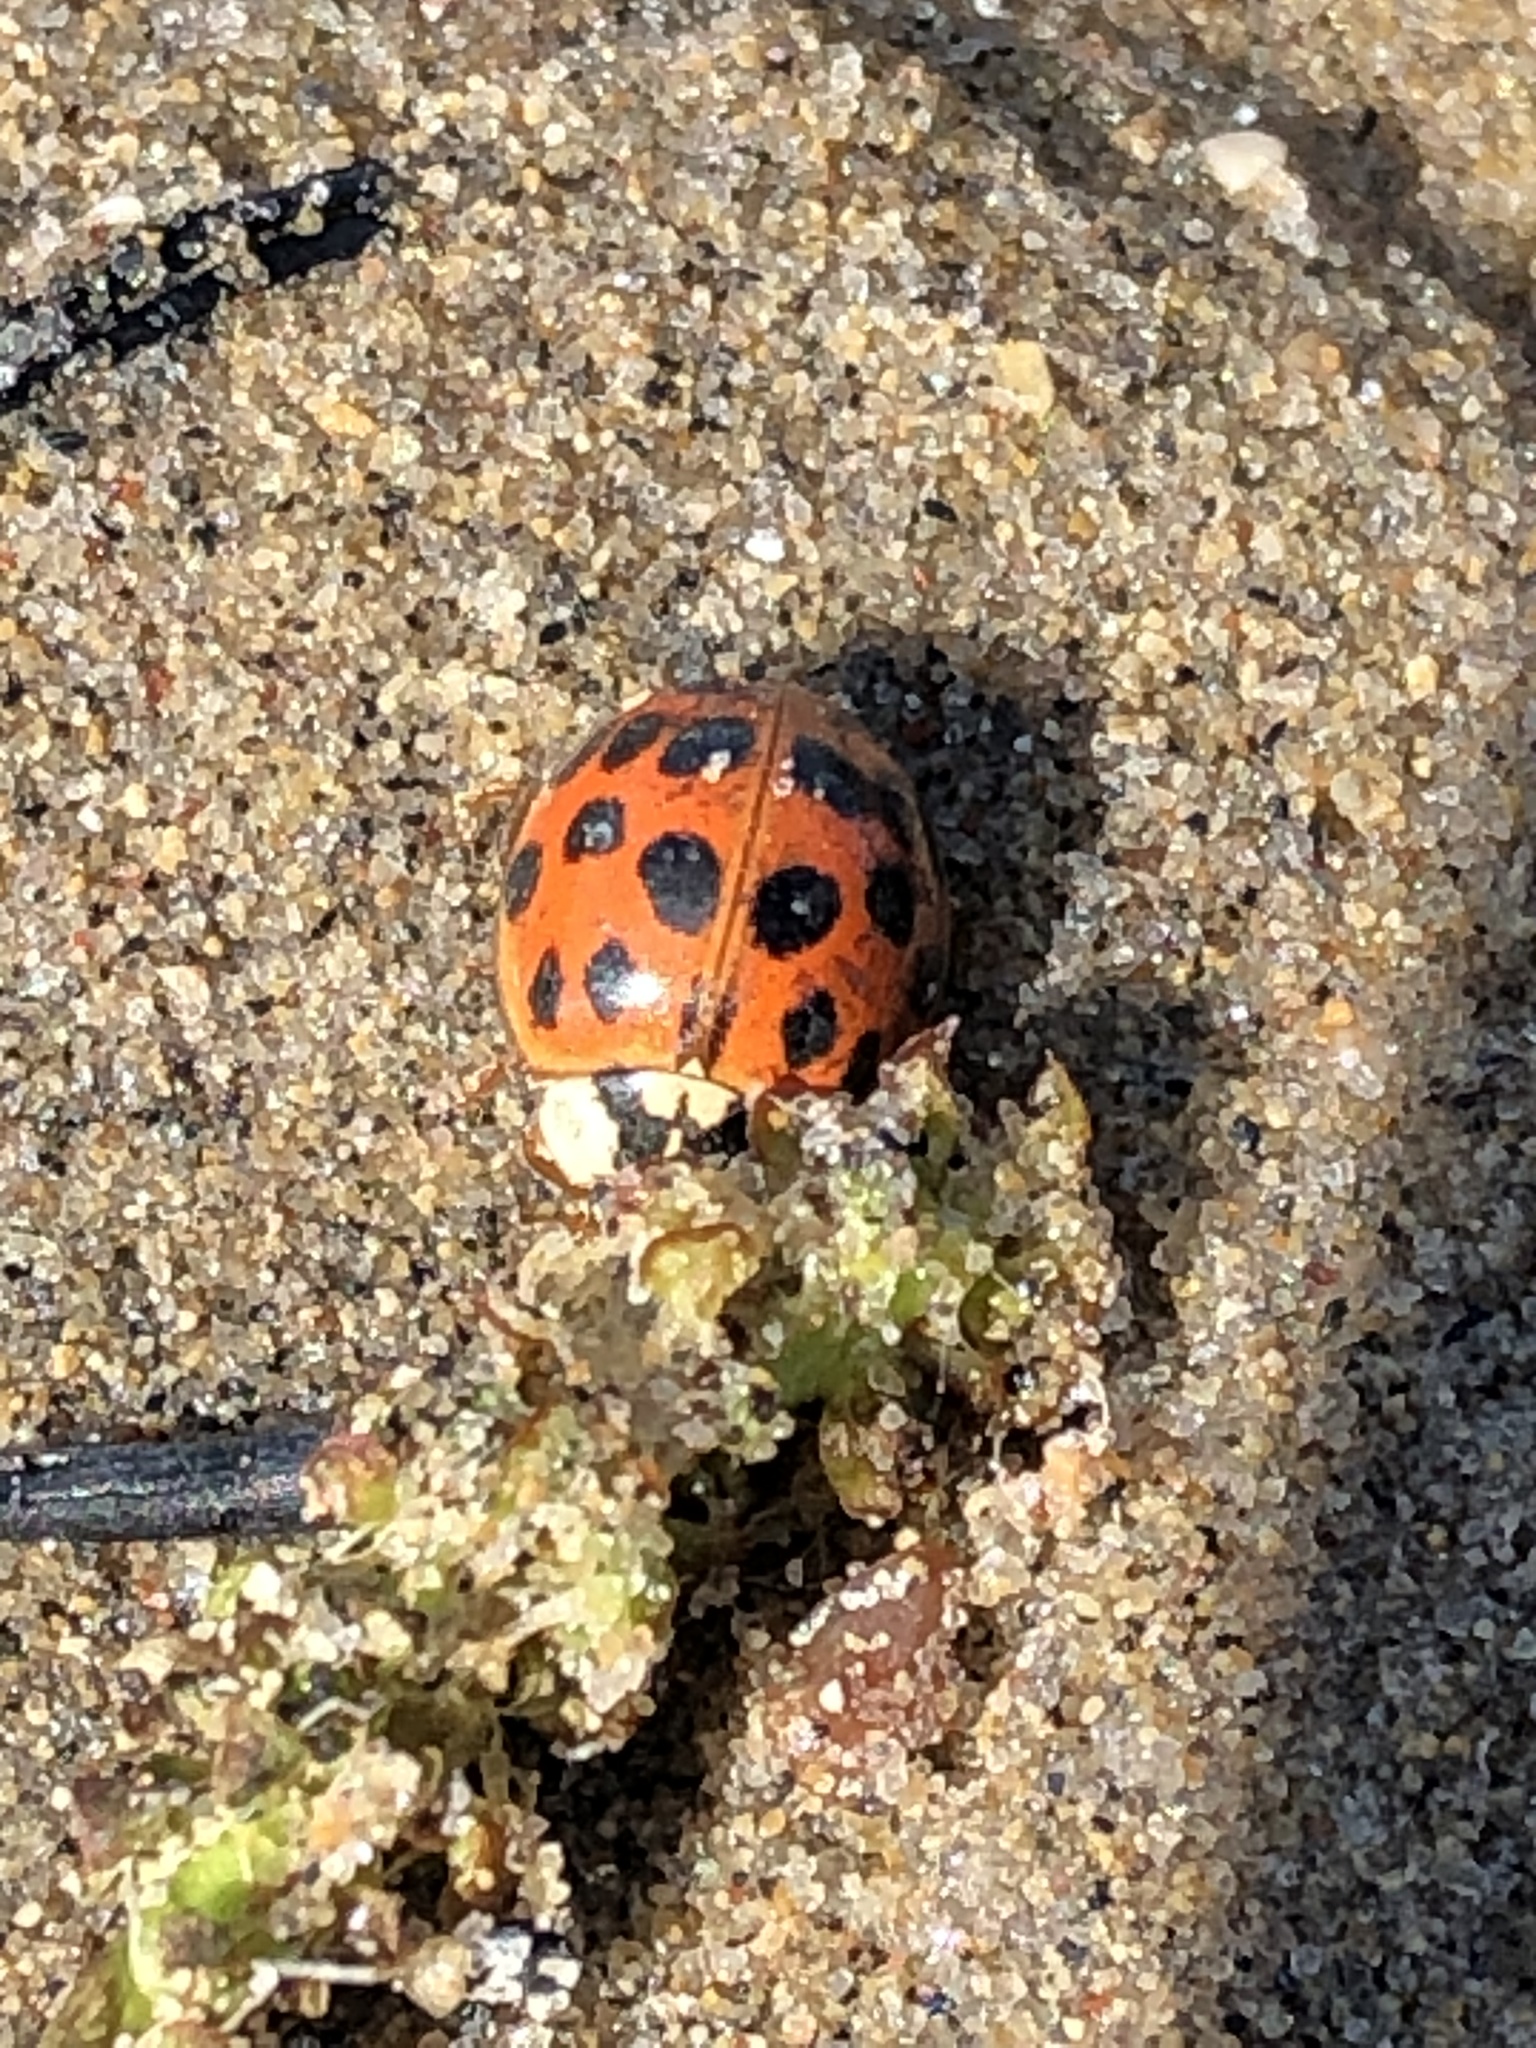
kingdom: Animalia
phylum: Arthropoda
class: Insecta
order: Coleoptera
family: Coccinellidae
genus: Harmonia
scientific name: Harmonia axyridis
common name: Harlequin ladybird
